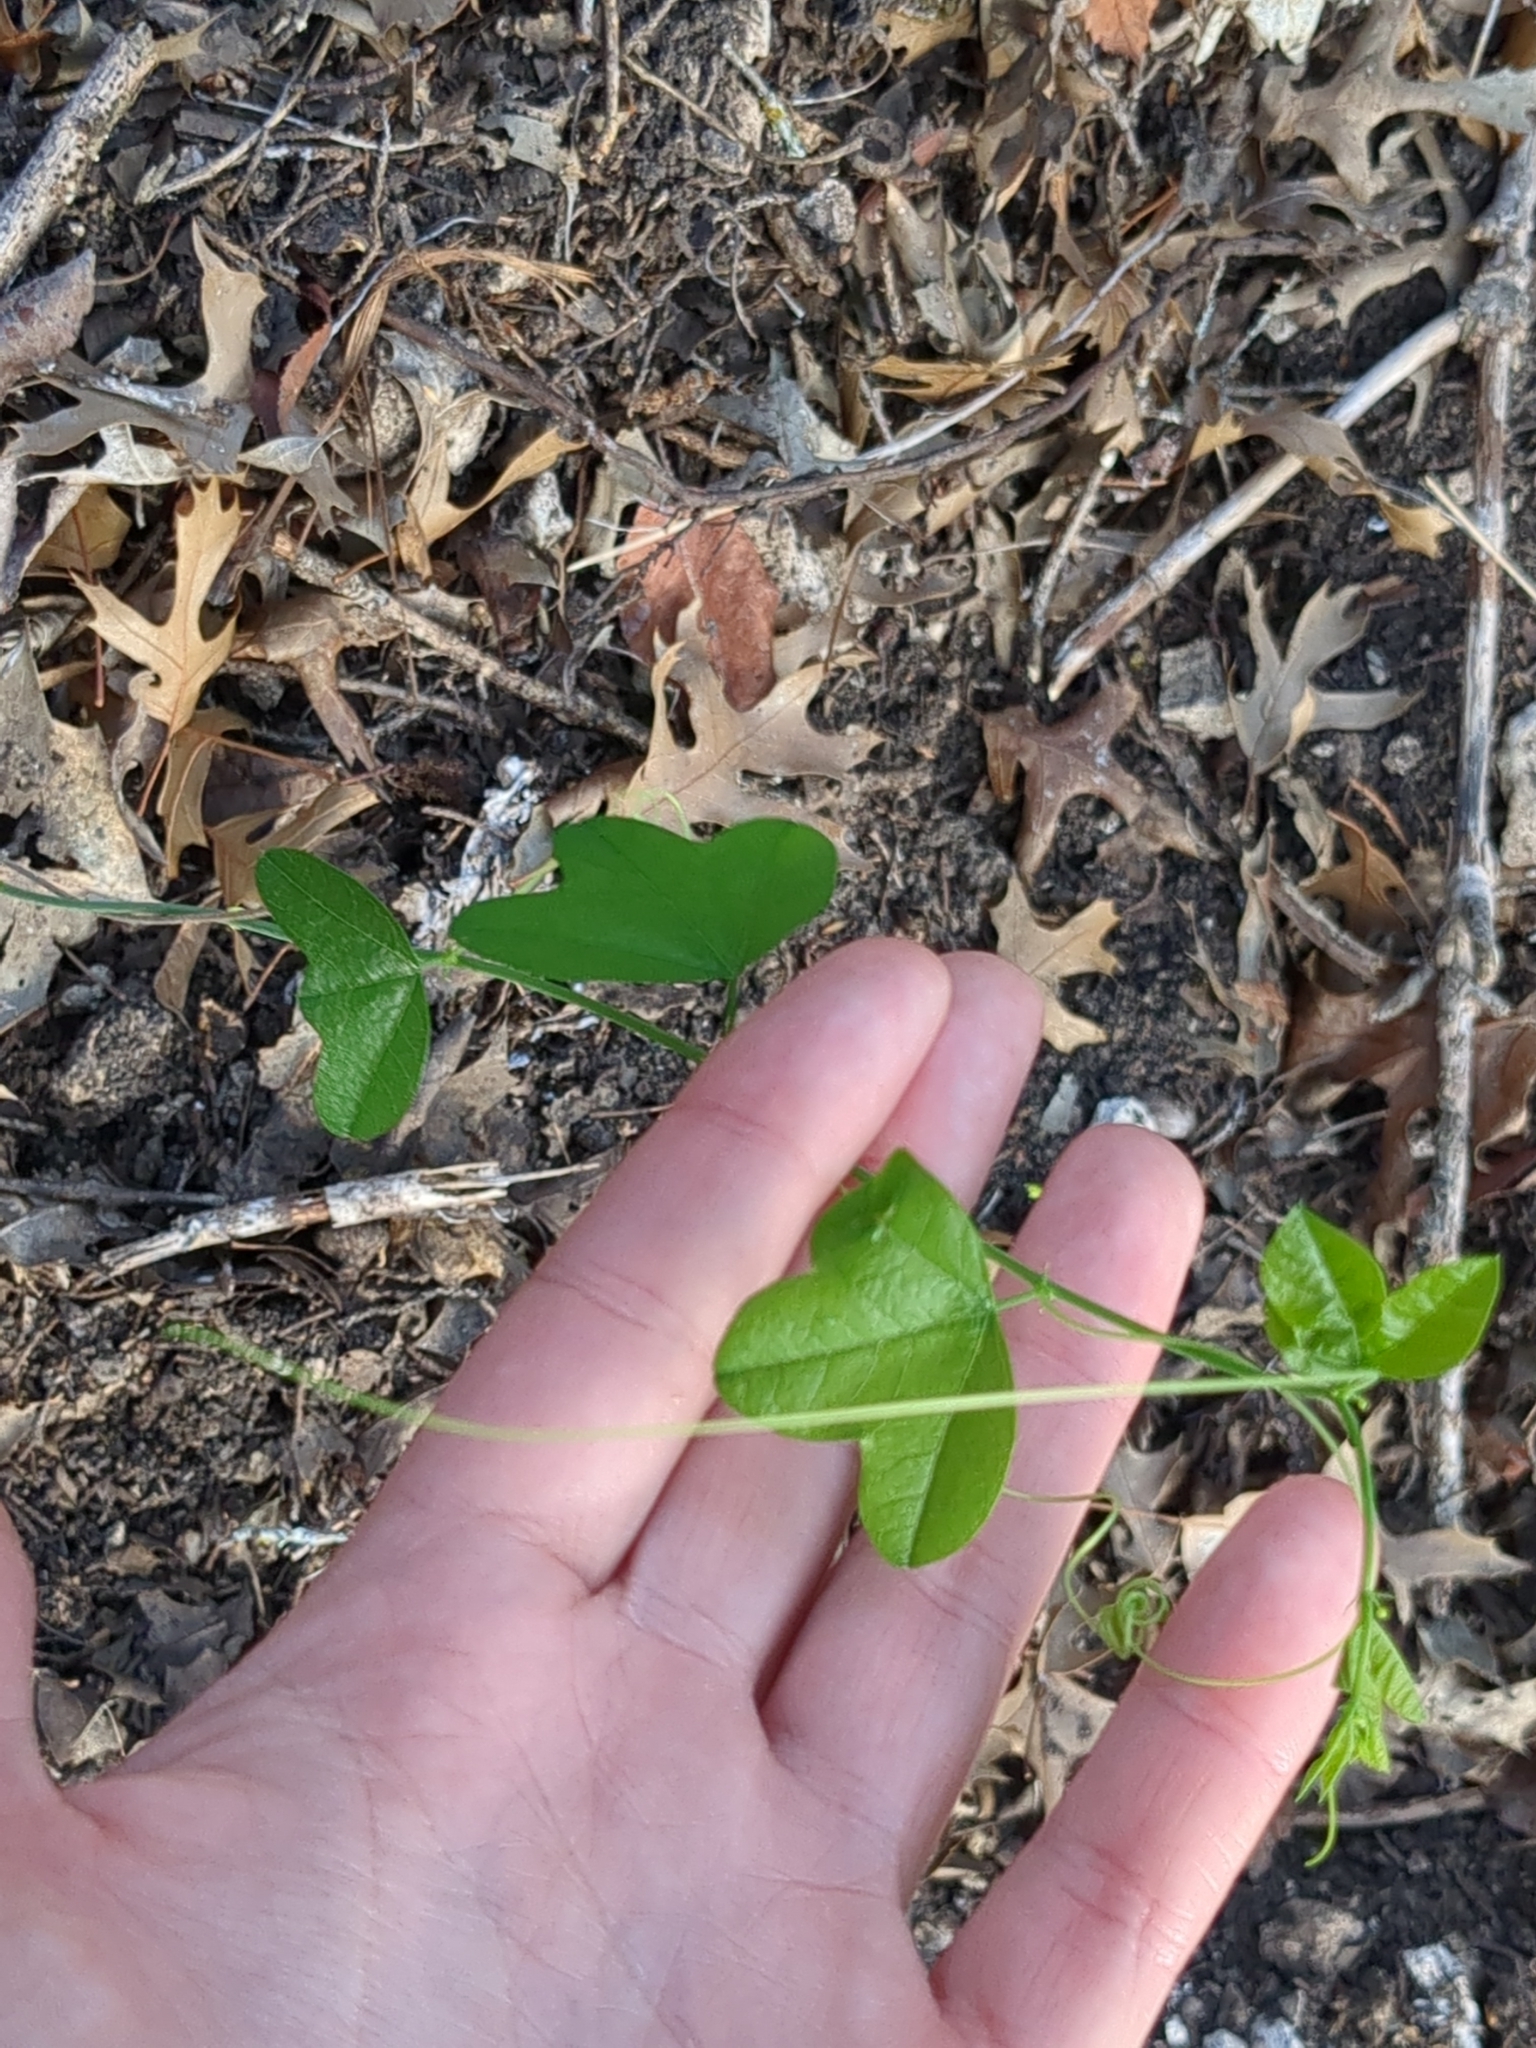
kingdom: Plantae
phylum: Tracheophyta
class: Magnoliopsida
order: Malpighiales
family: Passifloraceae
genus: Passiflora
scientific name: Passiflora lutea
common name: Yellow passionflower
